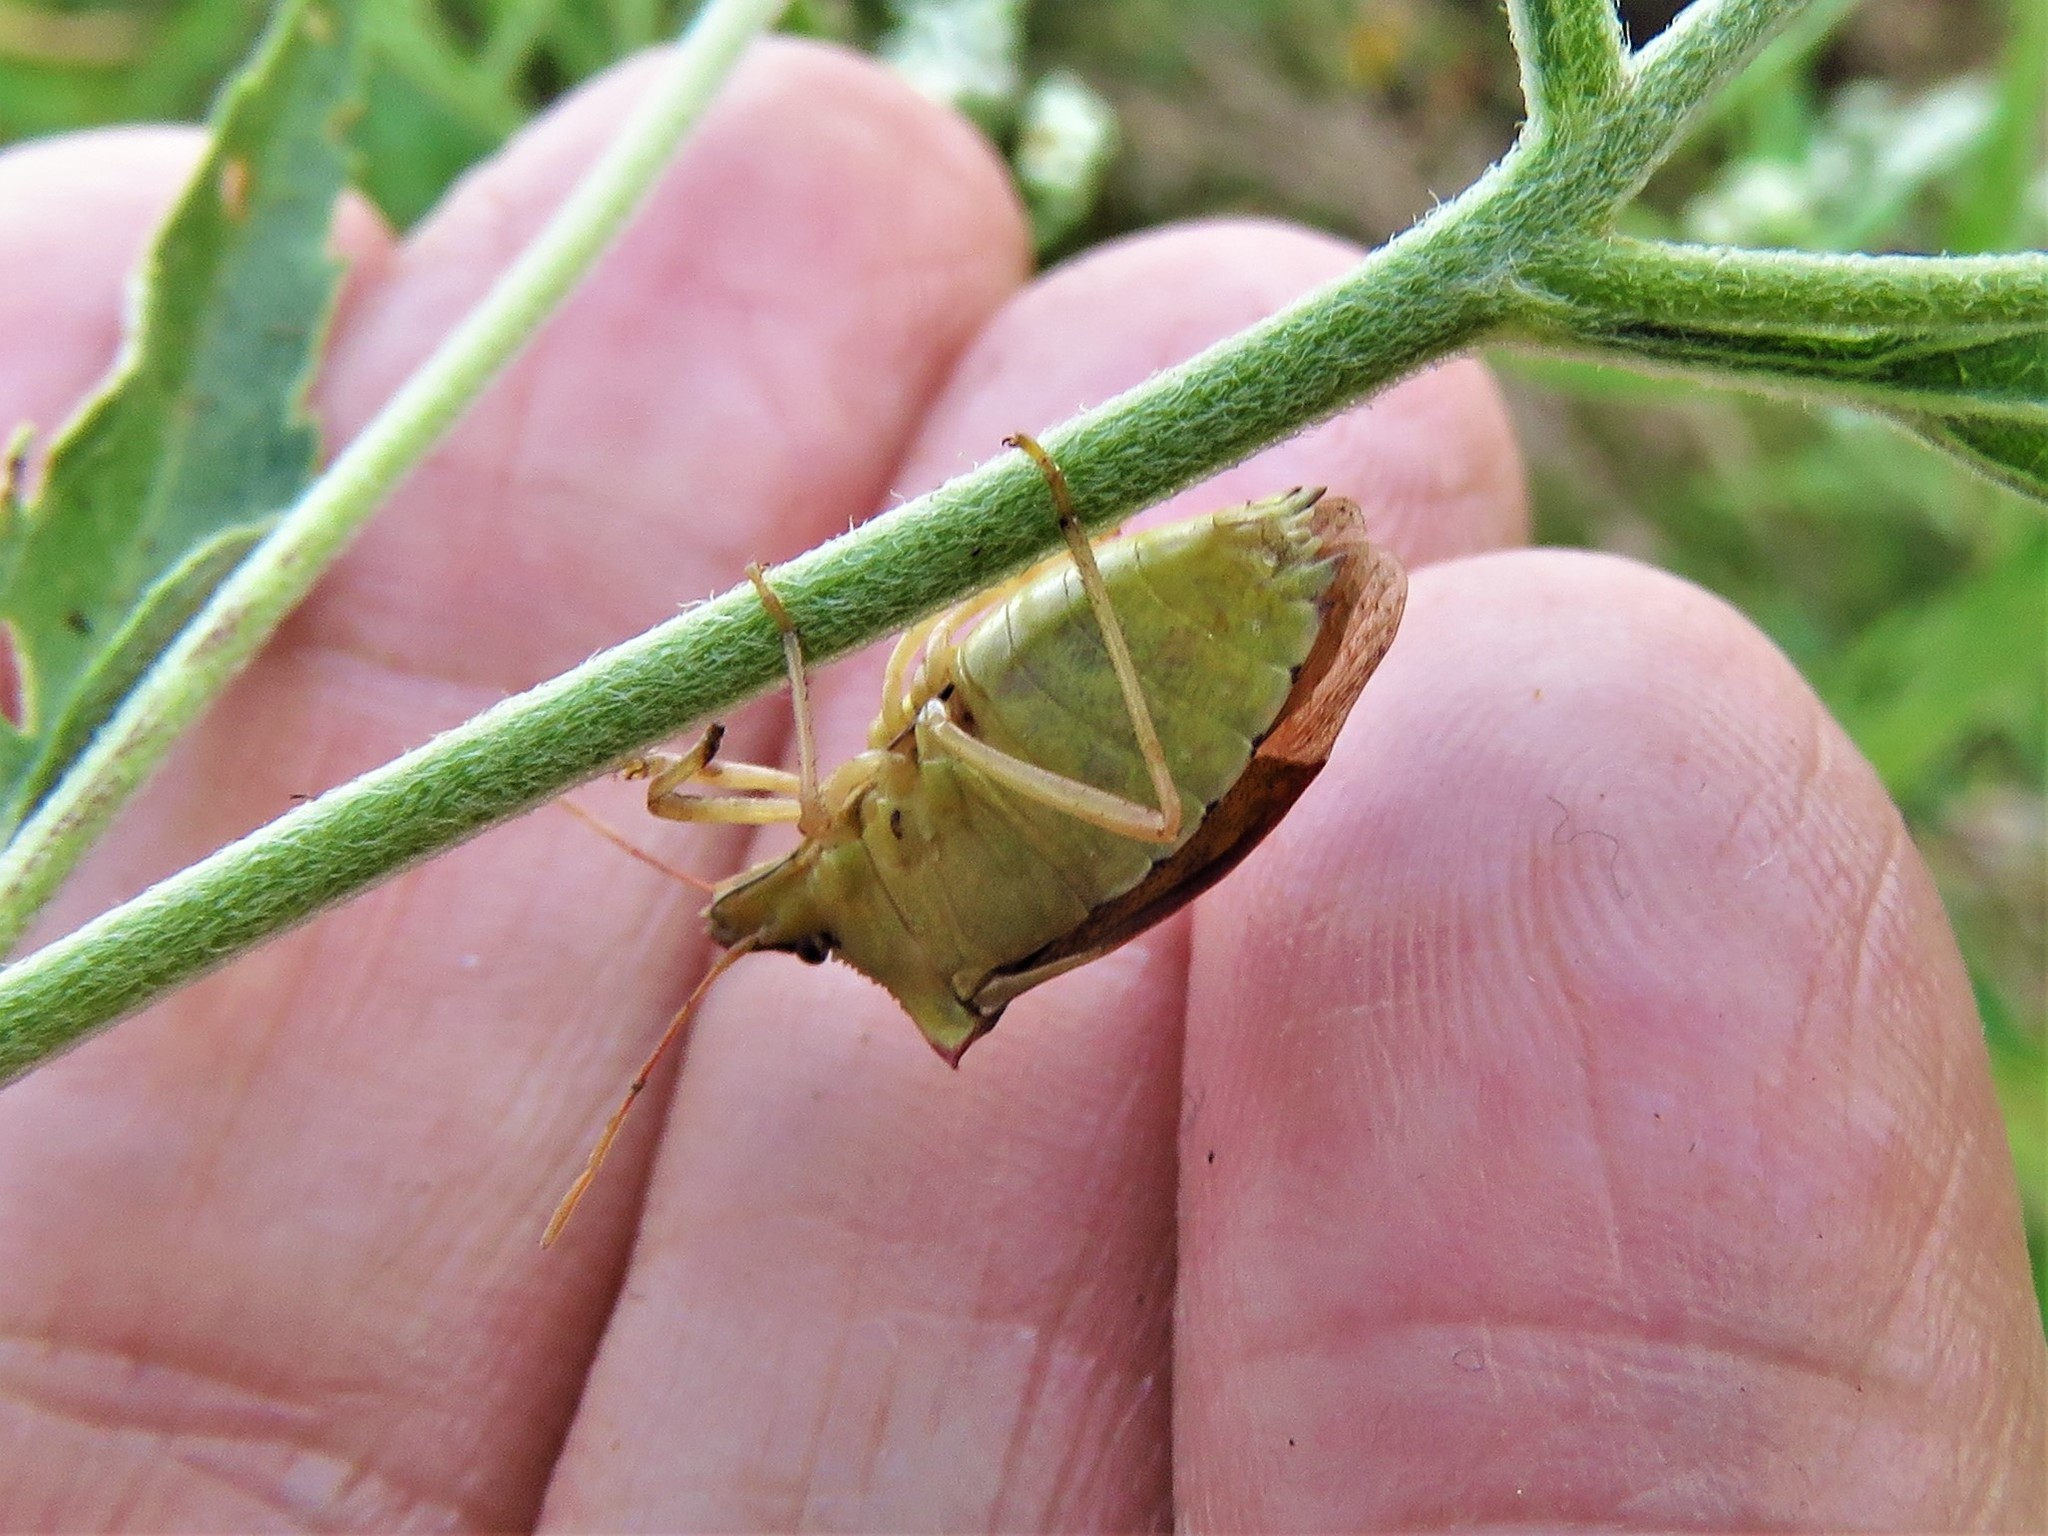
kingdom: Animalia
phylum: Arthropoda
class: Insecta
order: Hemiptera
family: Pentatomidae
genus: Euschistus
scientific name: Euschistus servus
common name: Brown stink bug
